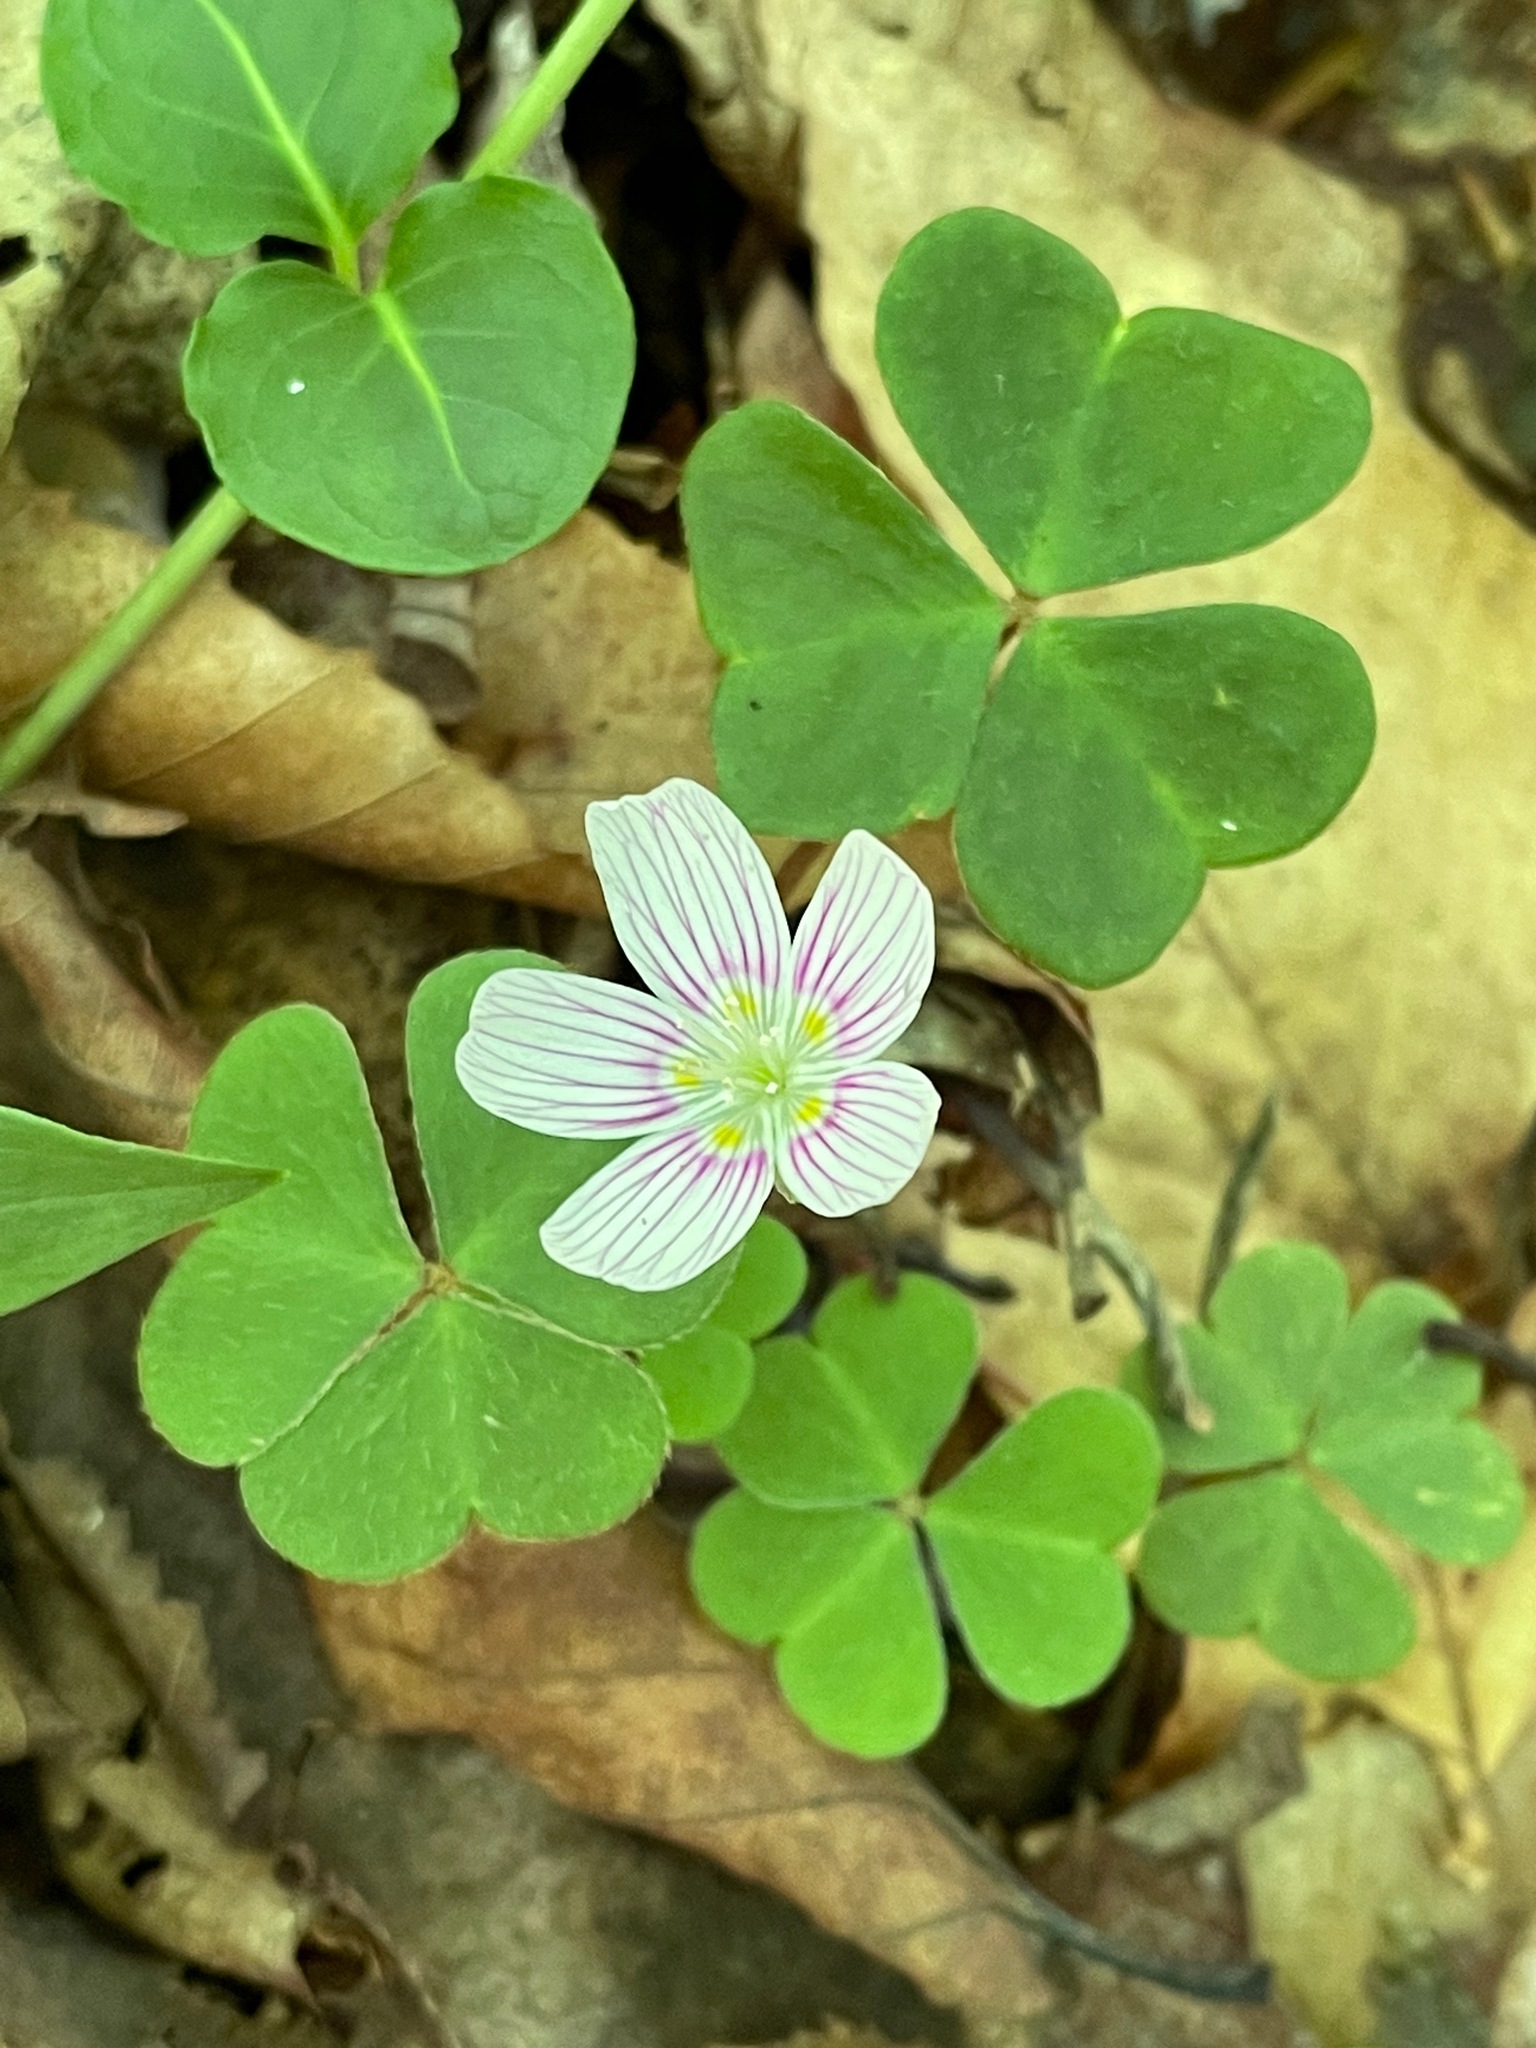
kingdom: Plantae
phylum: Tracheophyta
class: Magnoliopsida
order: Oxalidales
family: Oxalidaceae
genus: Oxalis
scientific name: Oxalis montana
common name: American wood-sorrel
